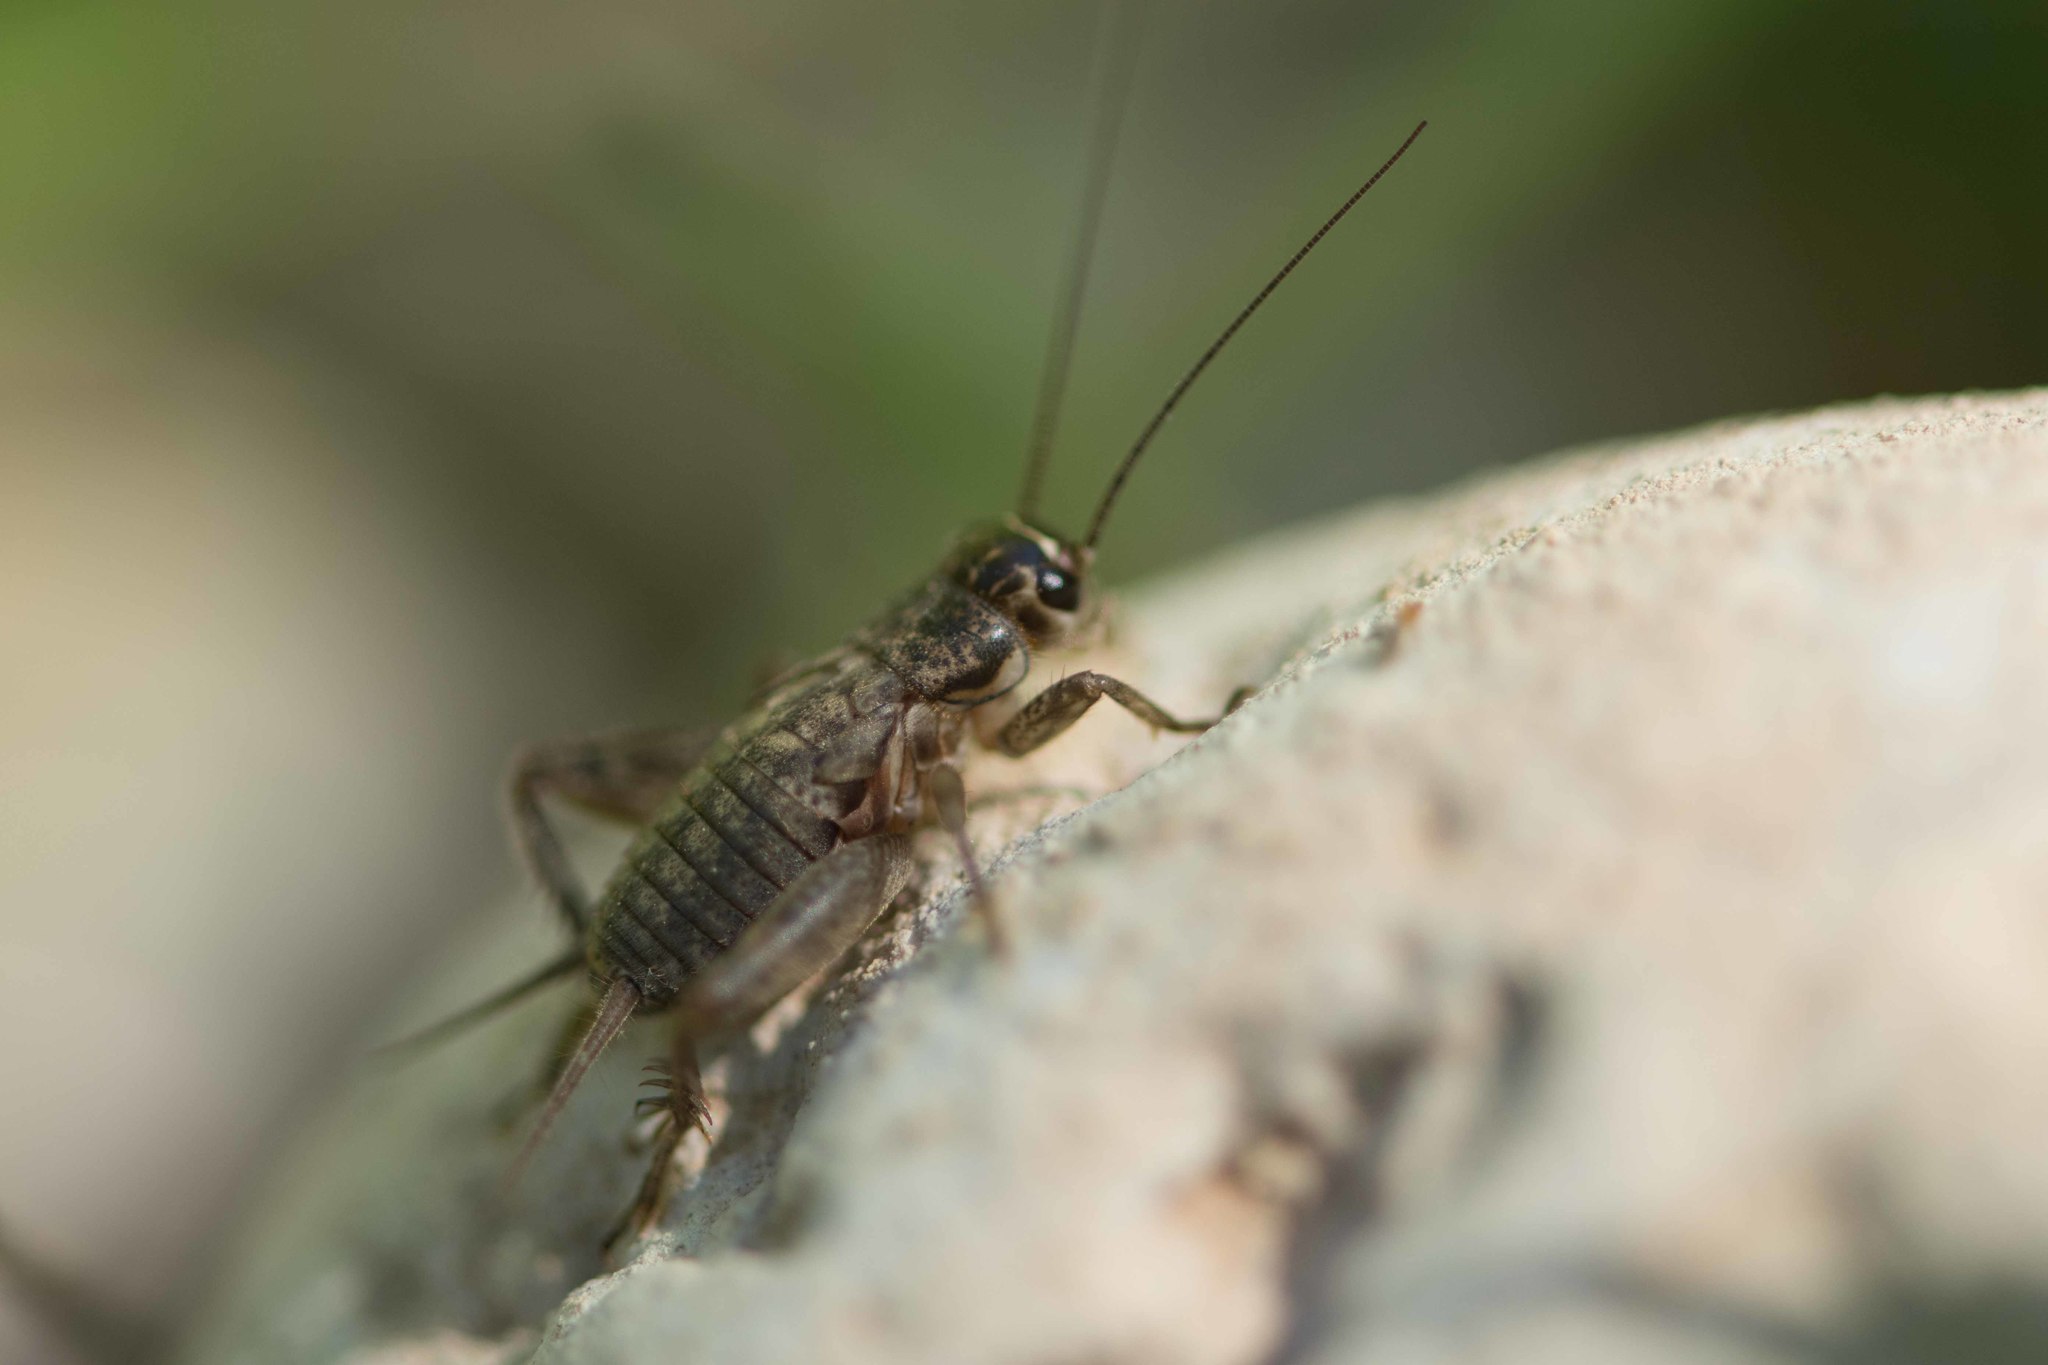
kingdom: Animalia
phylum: Arthropoda
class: Insecta
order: Orthoptera
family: Gryllidae
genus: Eumodicogryllus
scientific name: Eumodicogryllus bordigalensis
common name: Bordeaux cricket
